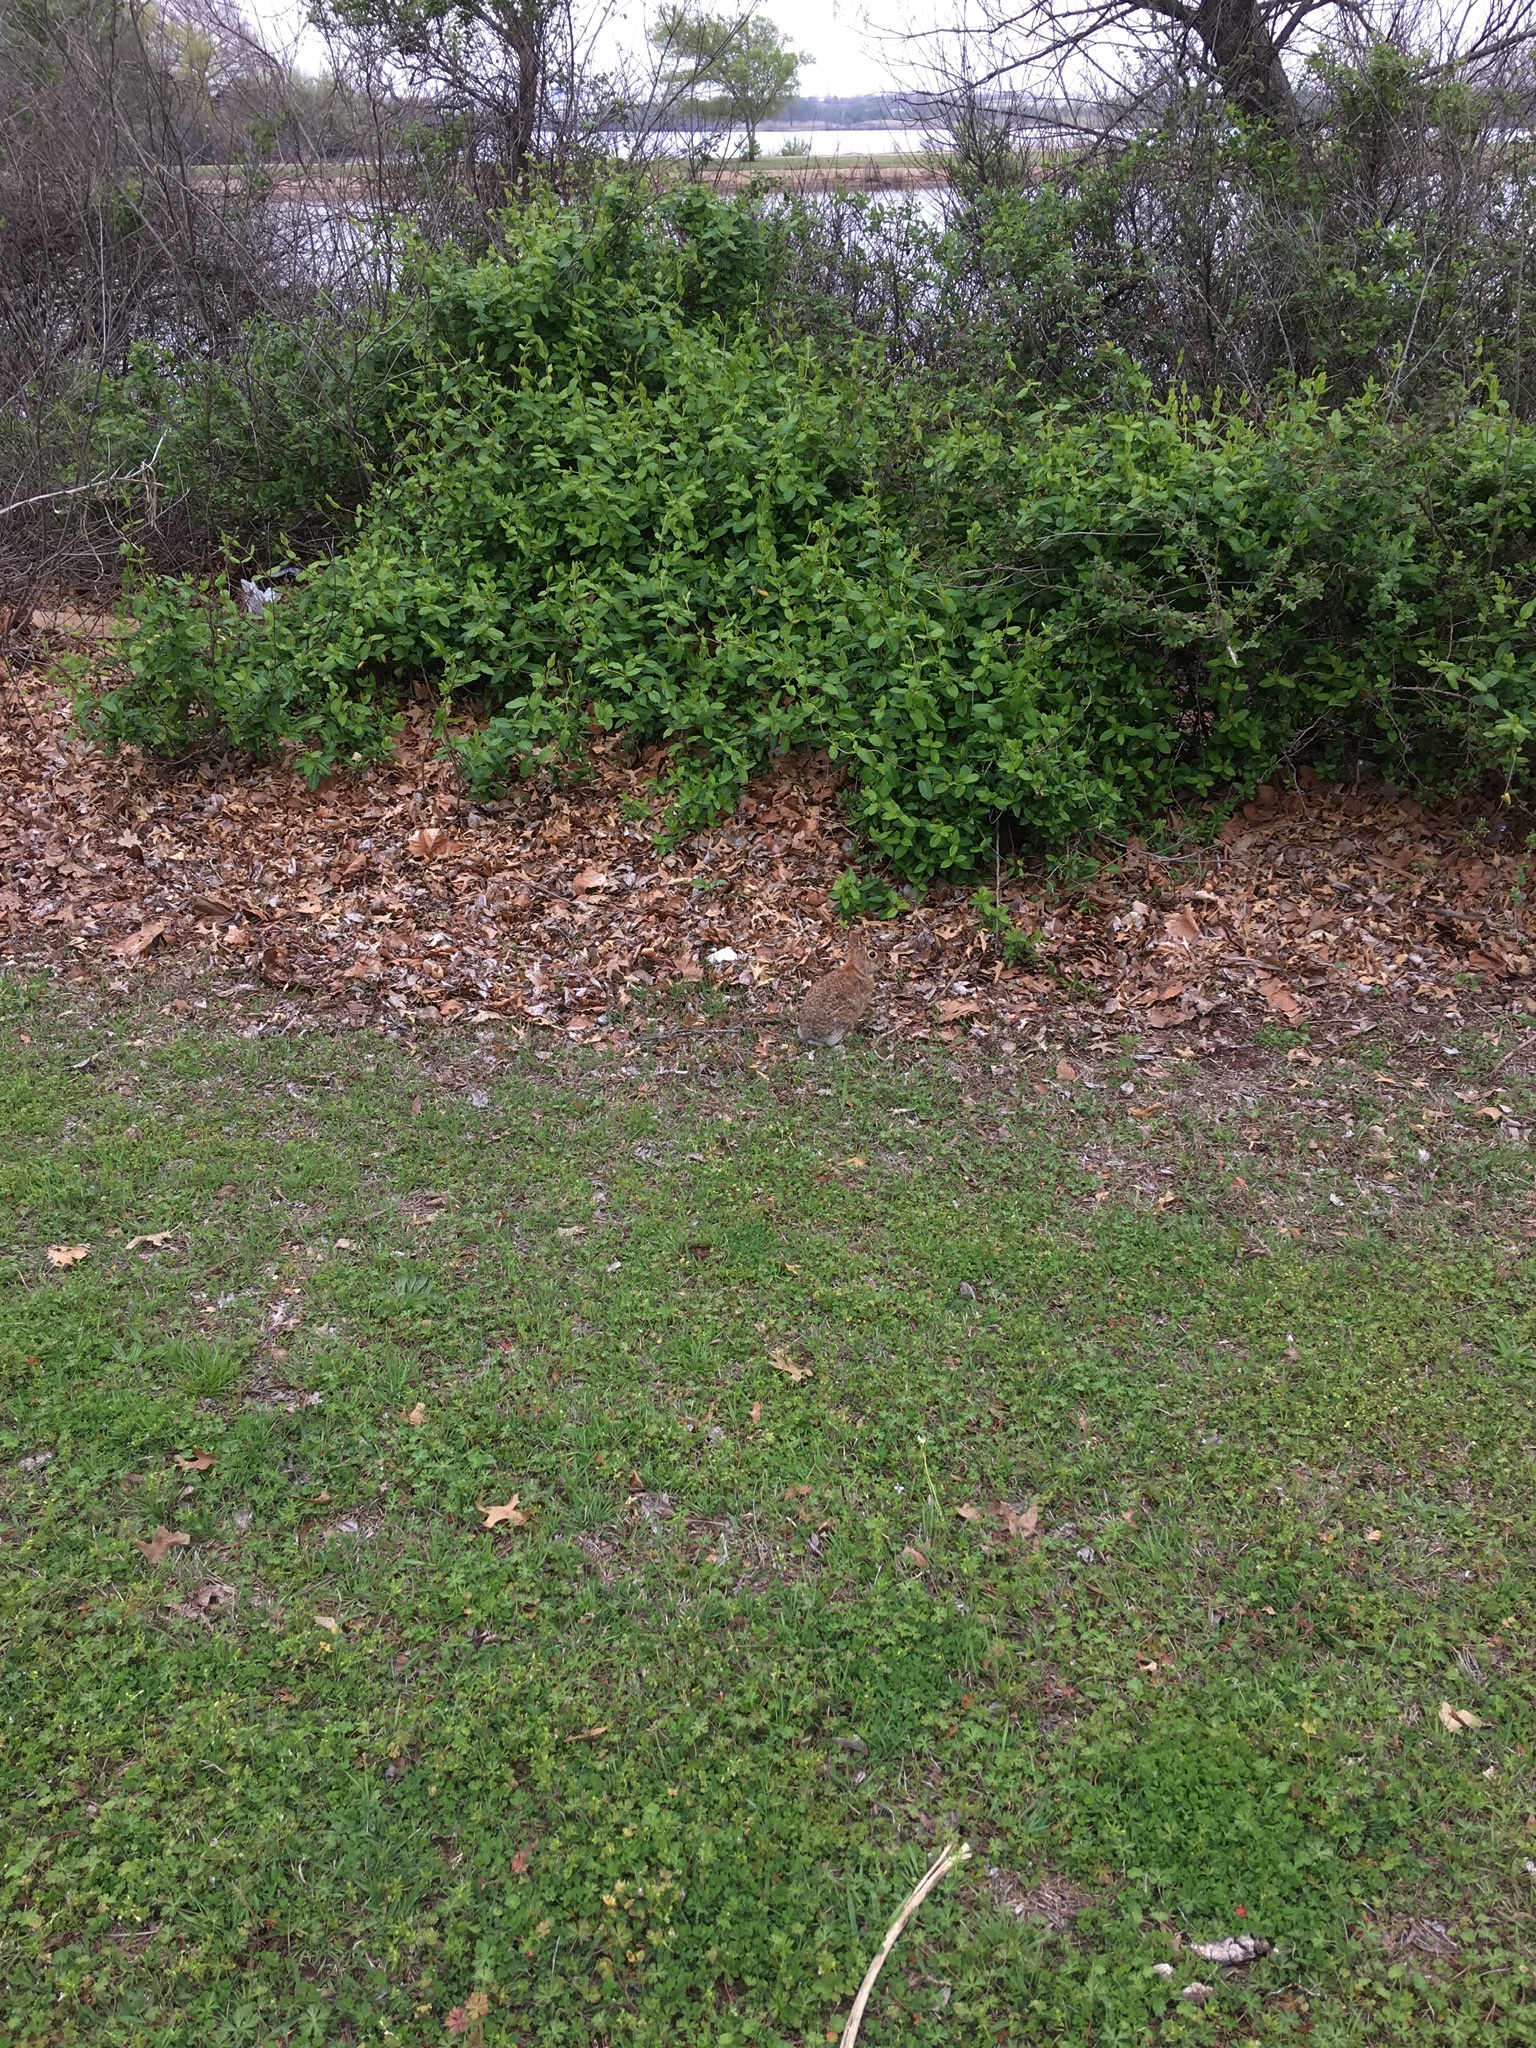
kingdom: Animalia
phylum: Chordata
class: Mammalia
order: Lagomorpha
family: Leporidae
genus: Sylvilagus
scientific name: Sylvilagus floridanus
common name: Eastern cottontail
